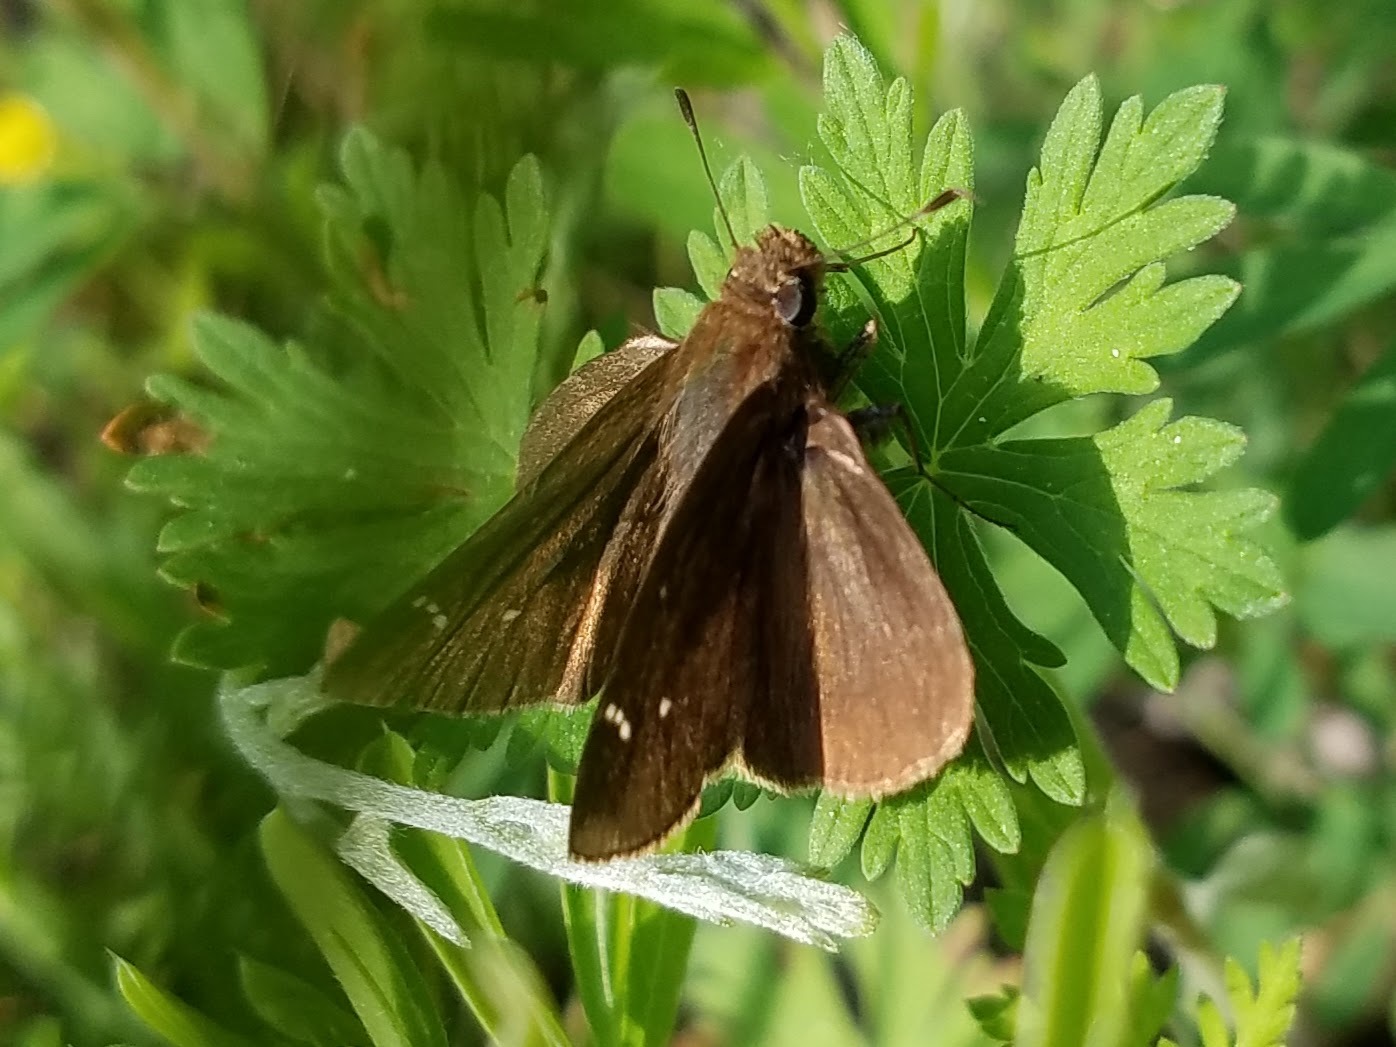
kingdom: Animalia
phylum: Arthropoda
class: Insecta
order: Lepidoptera
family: Hesperiidae
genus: Lerema
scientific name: Lerema accius
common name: Clouded skipper
